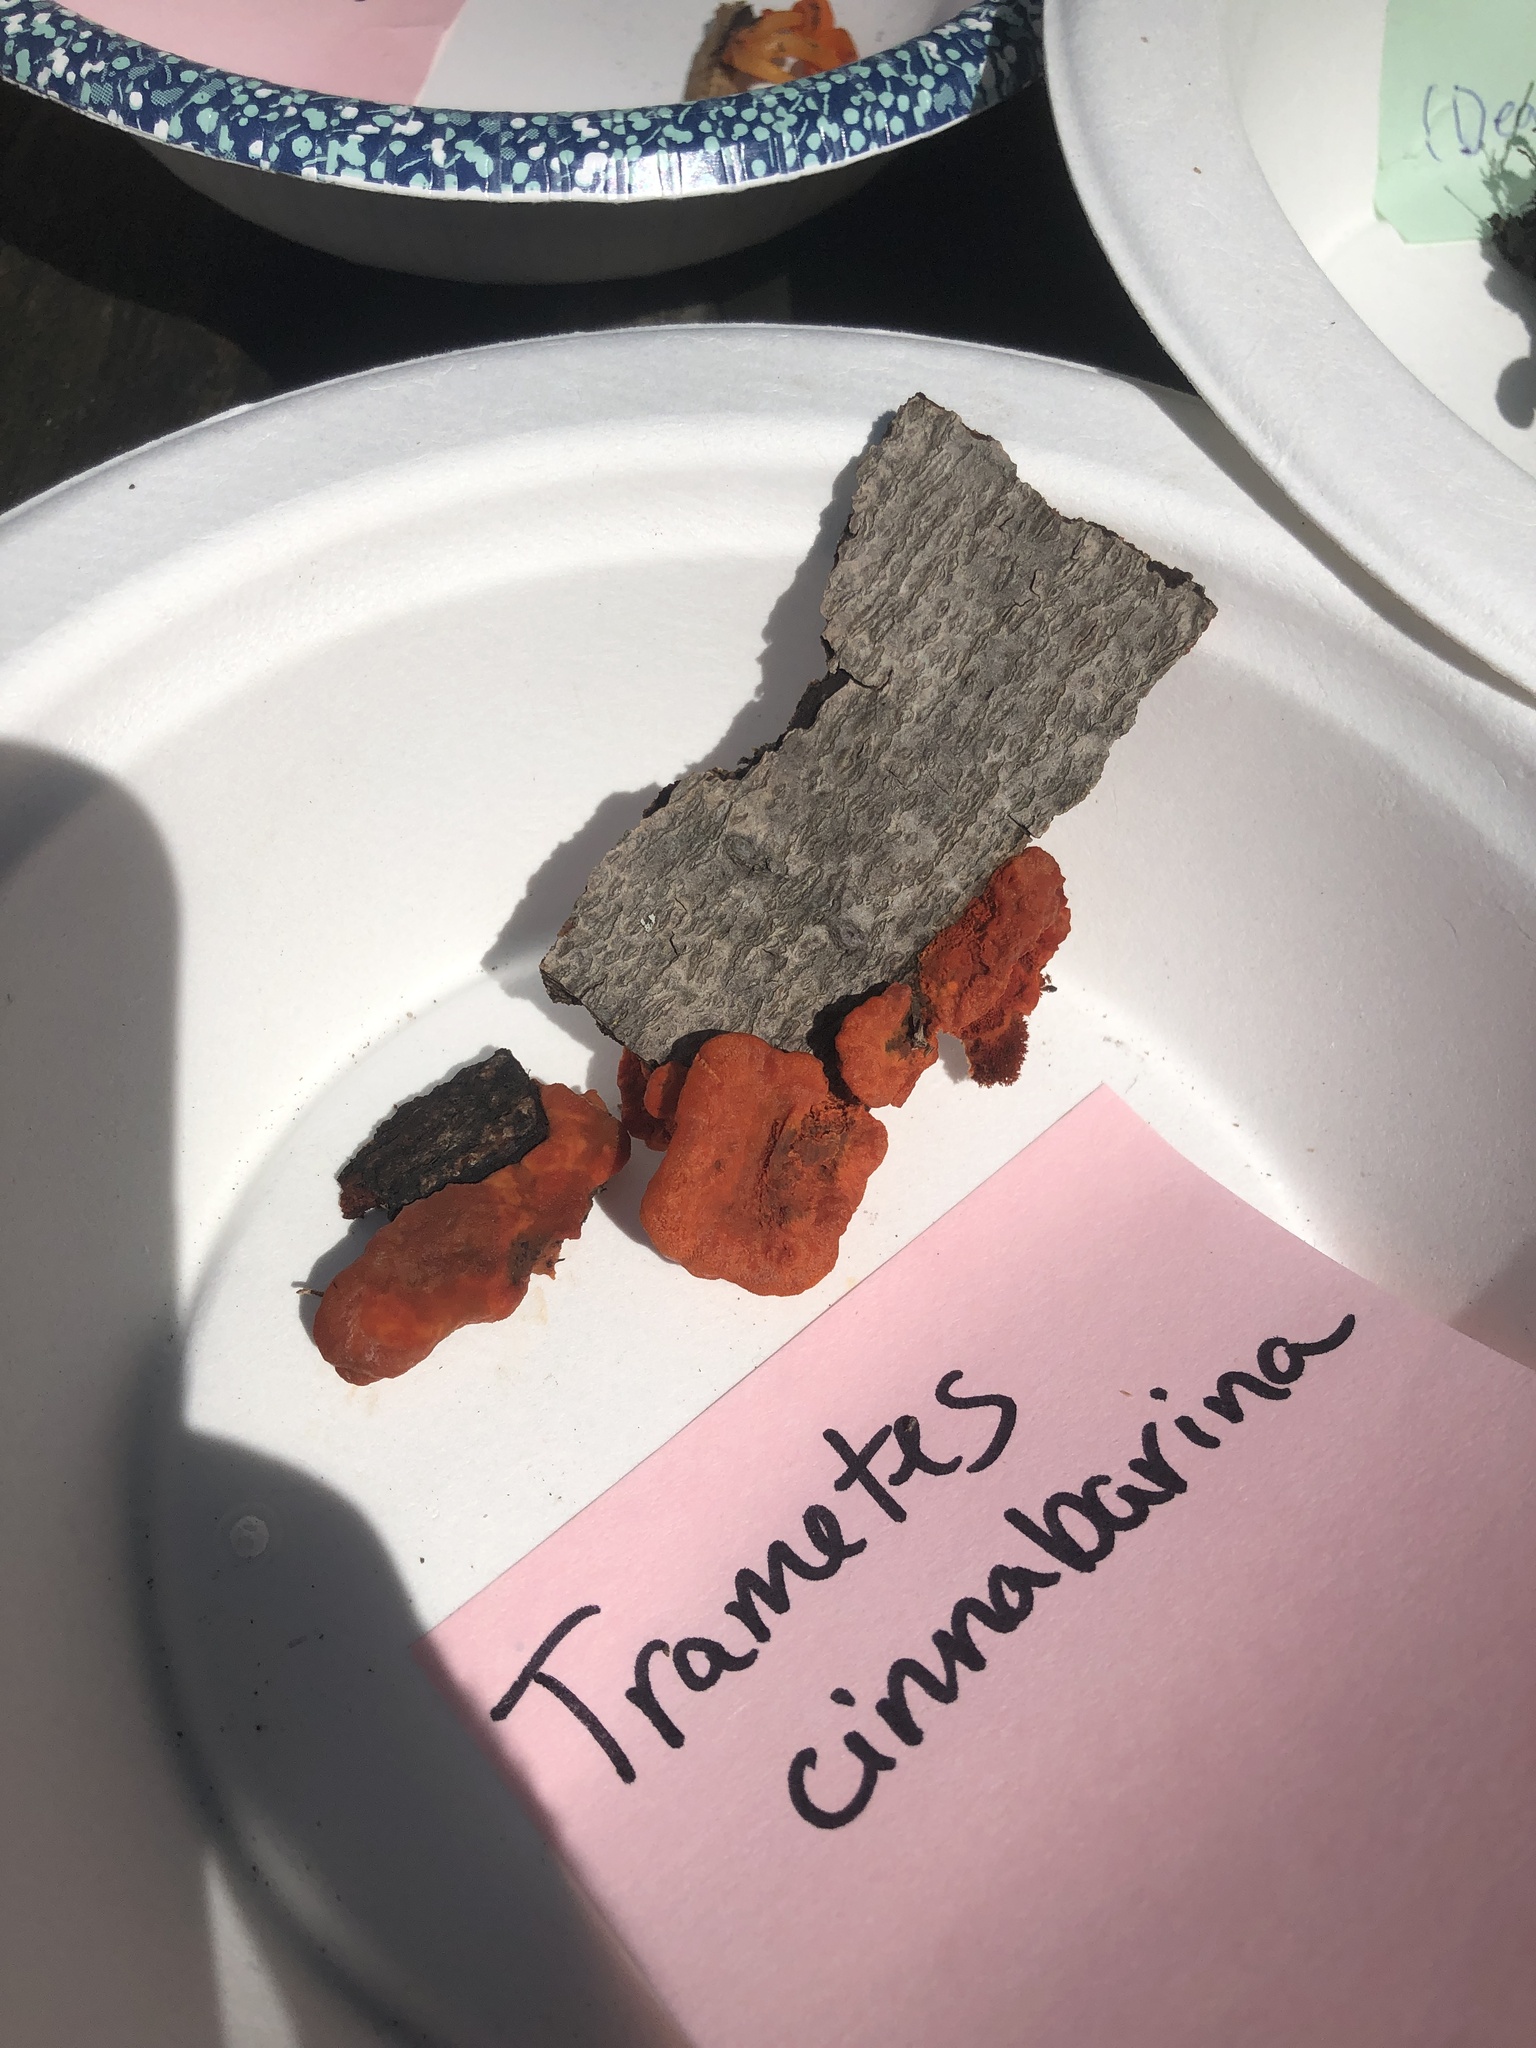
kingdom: Fungi
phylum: Basidiomycota
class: Agaricomycetes
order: Polyporales
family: Polyporaceae
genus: Trametes
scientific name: Trametes cinnabarina
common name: Northern cinnabar polypore
